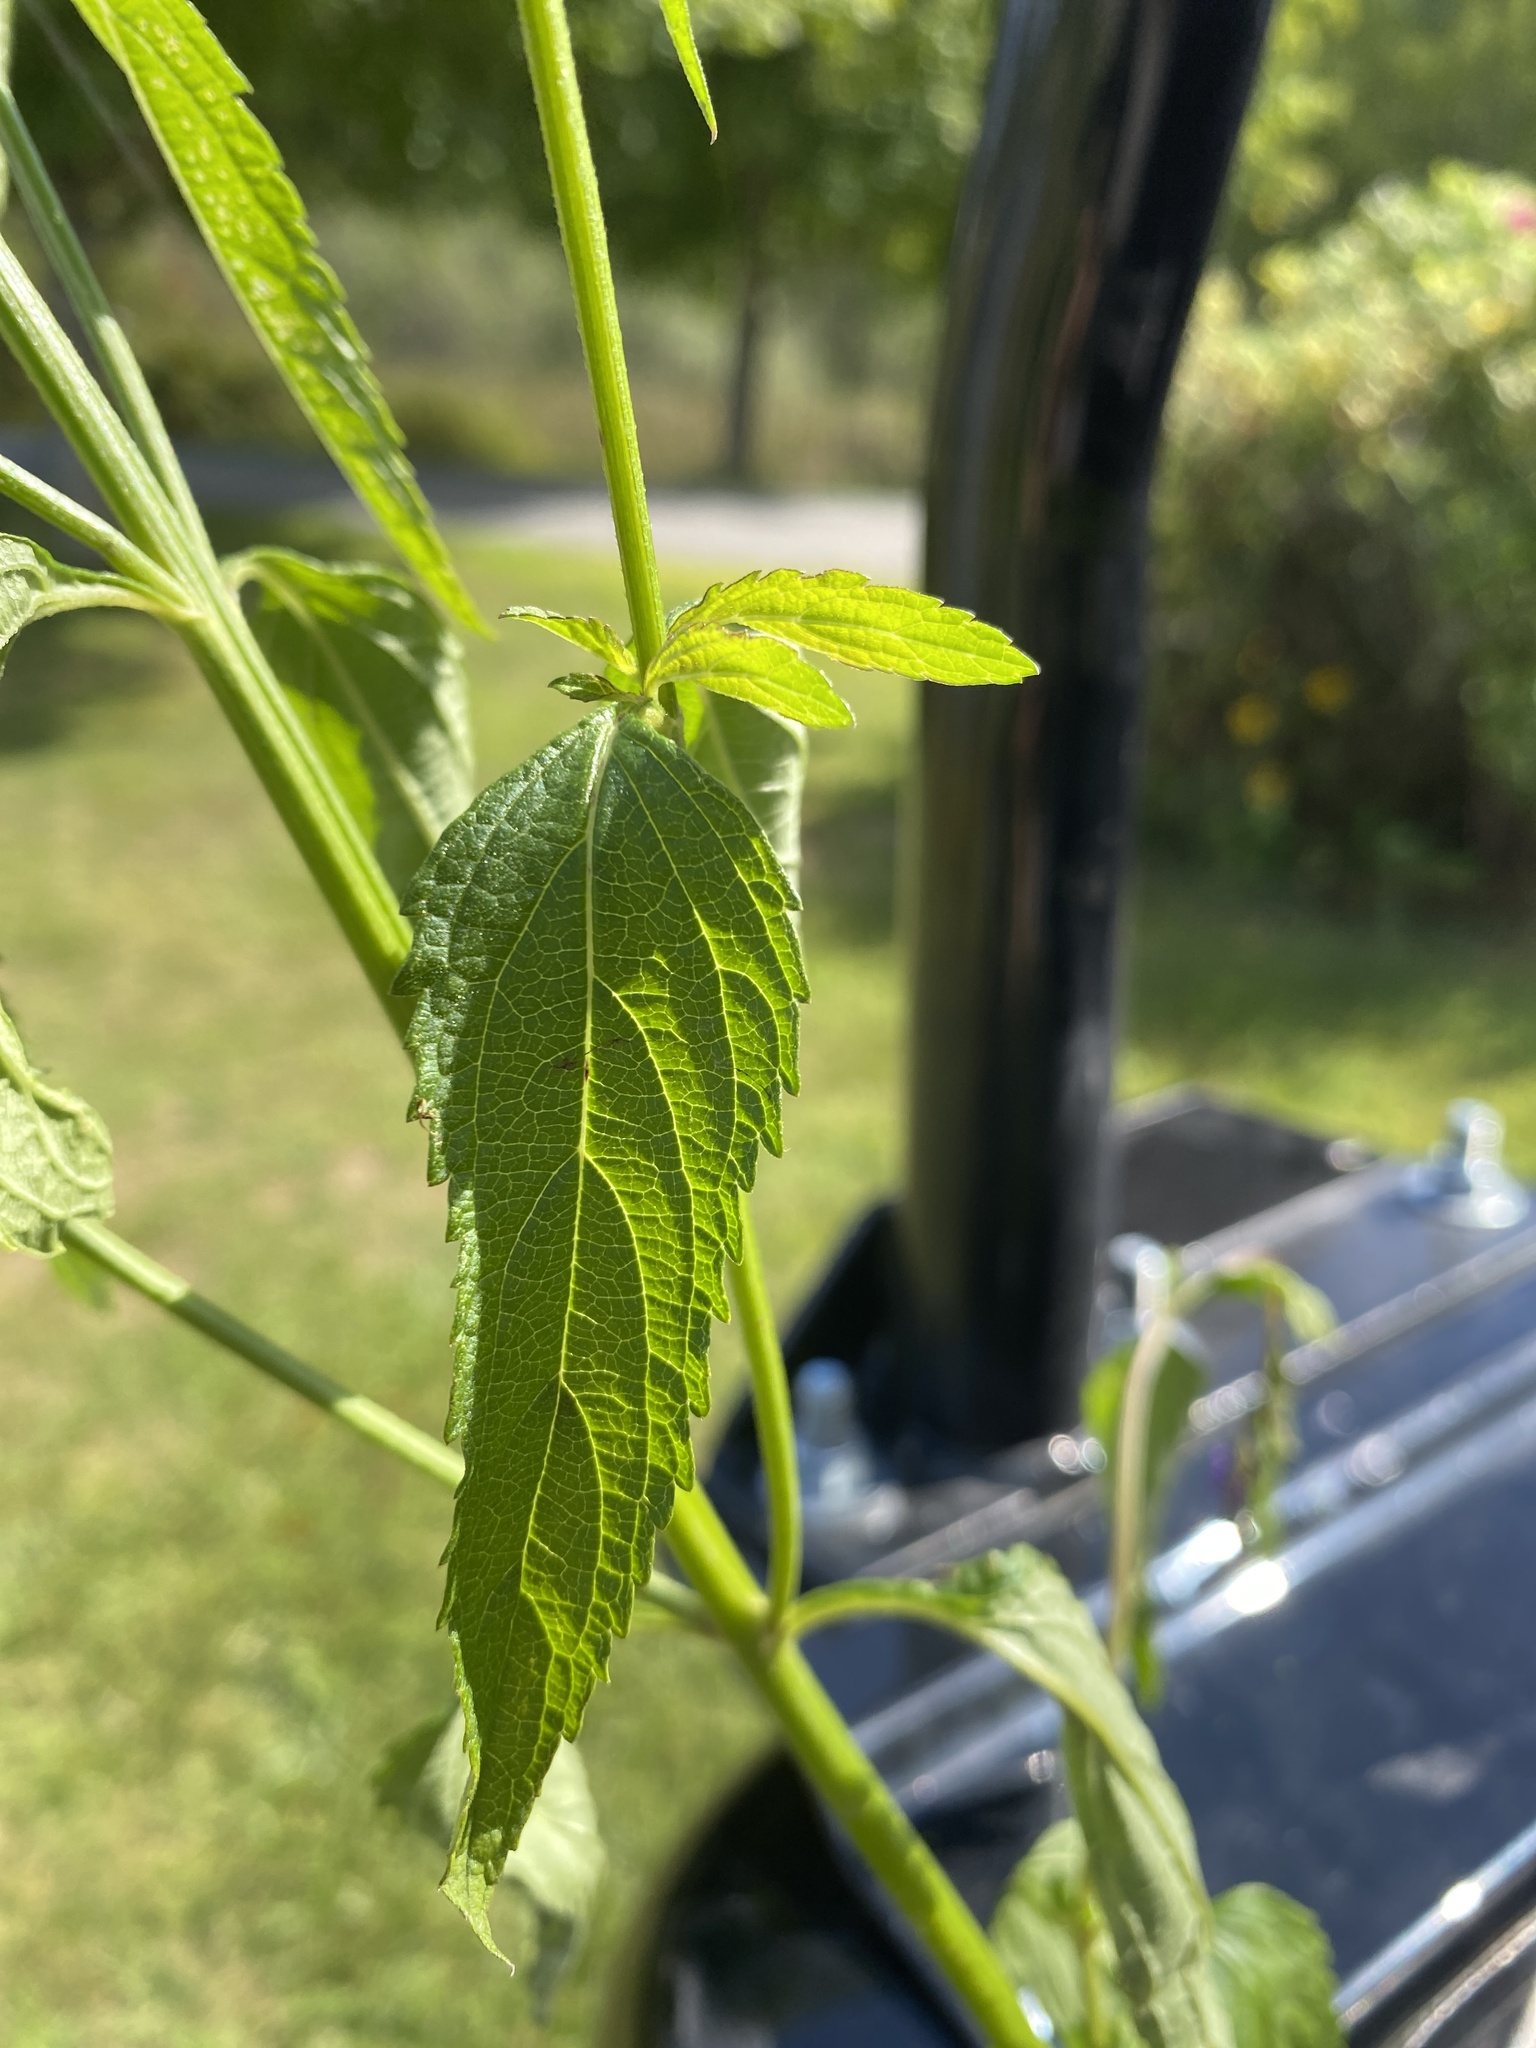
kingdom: Plantae
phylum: Tracheophyta
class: Magnoliopsida
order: Lamiales
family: Verbenaceae
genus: Verbena
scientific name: Verbena hastata
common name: American blue vervain
